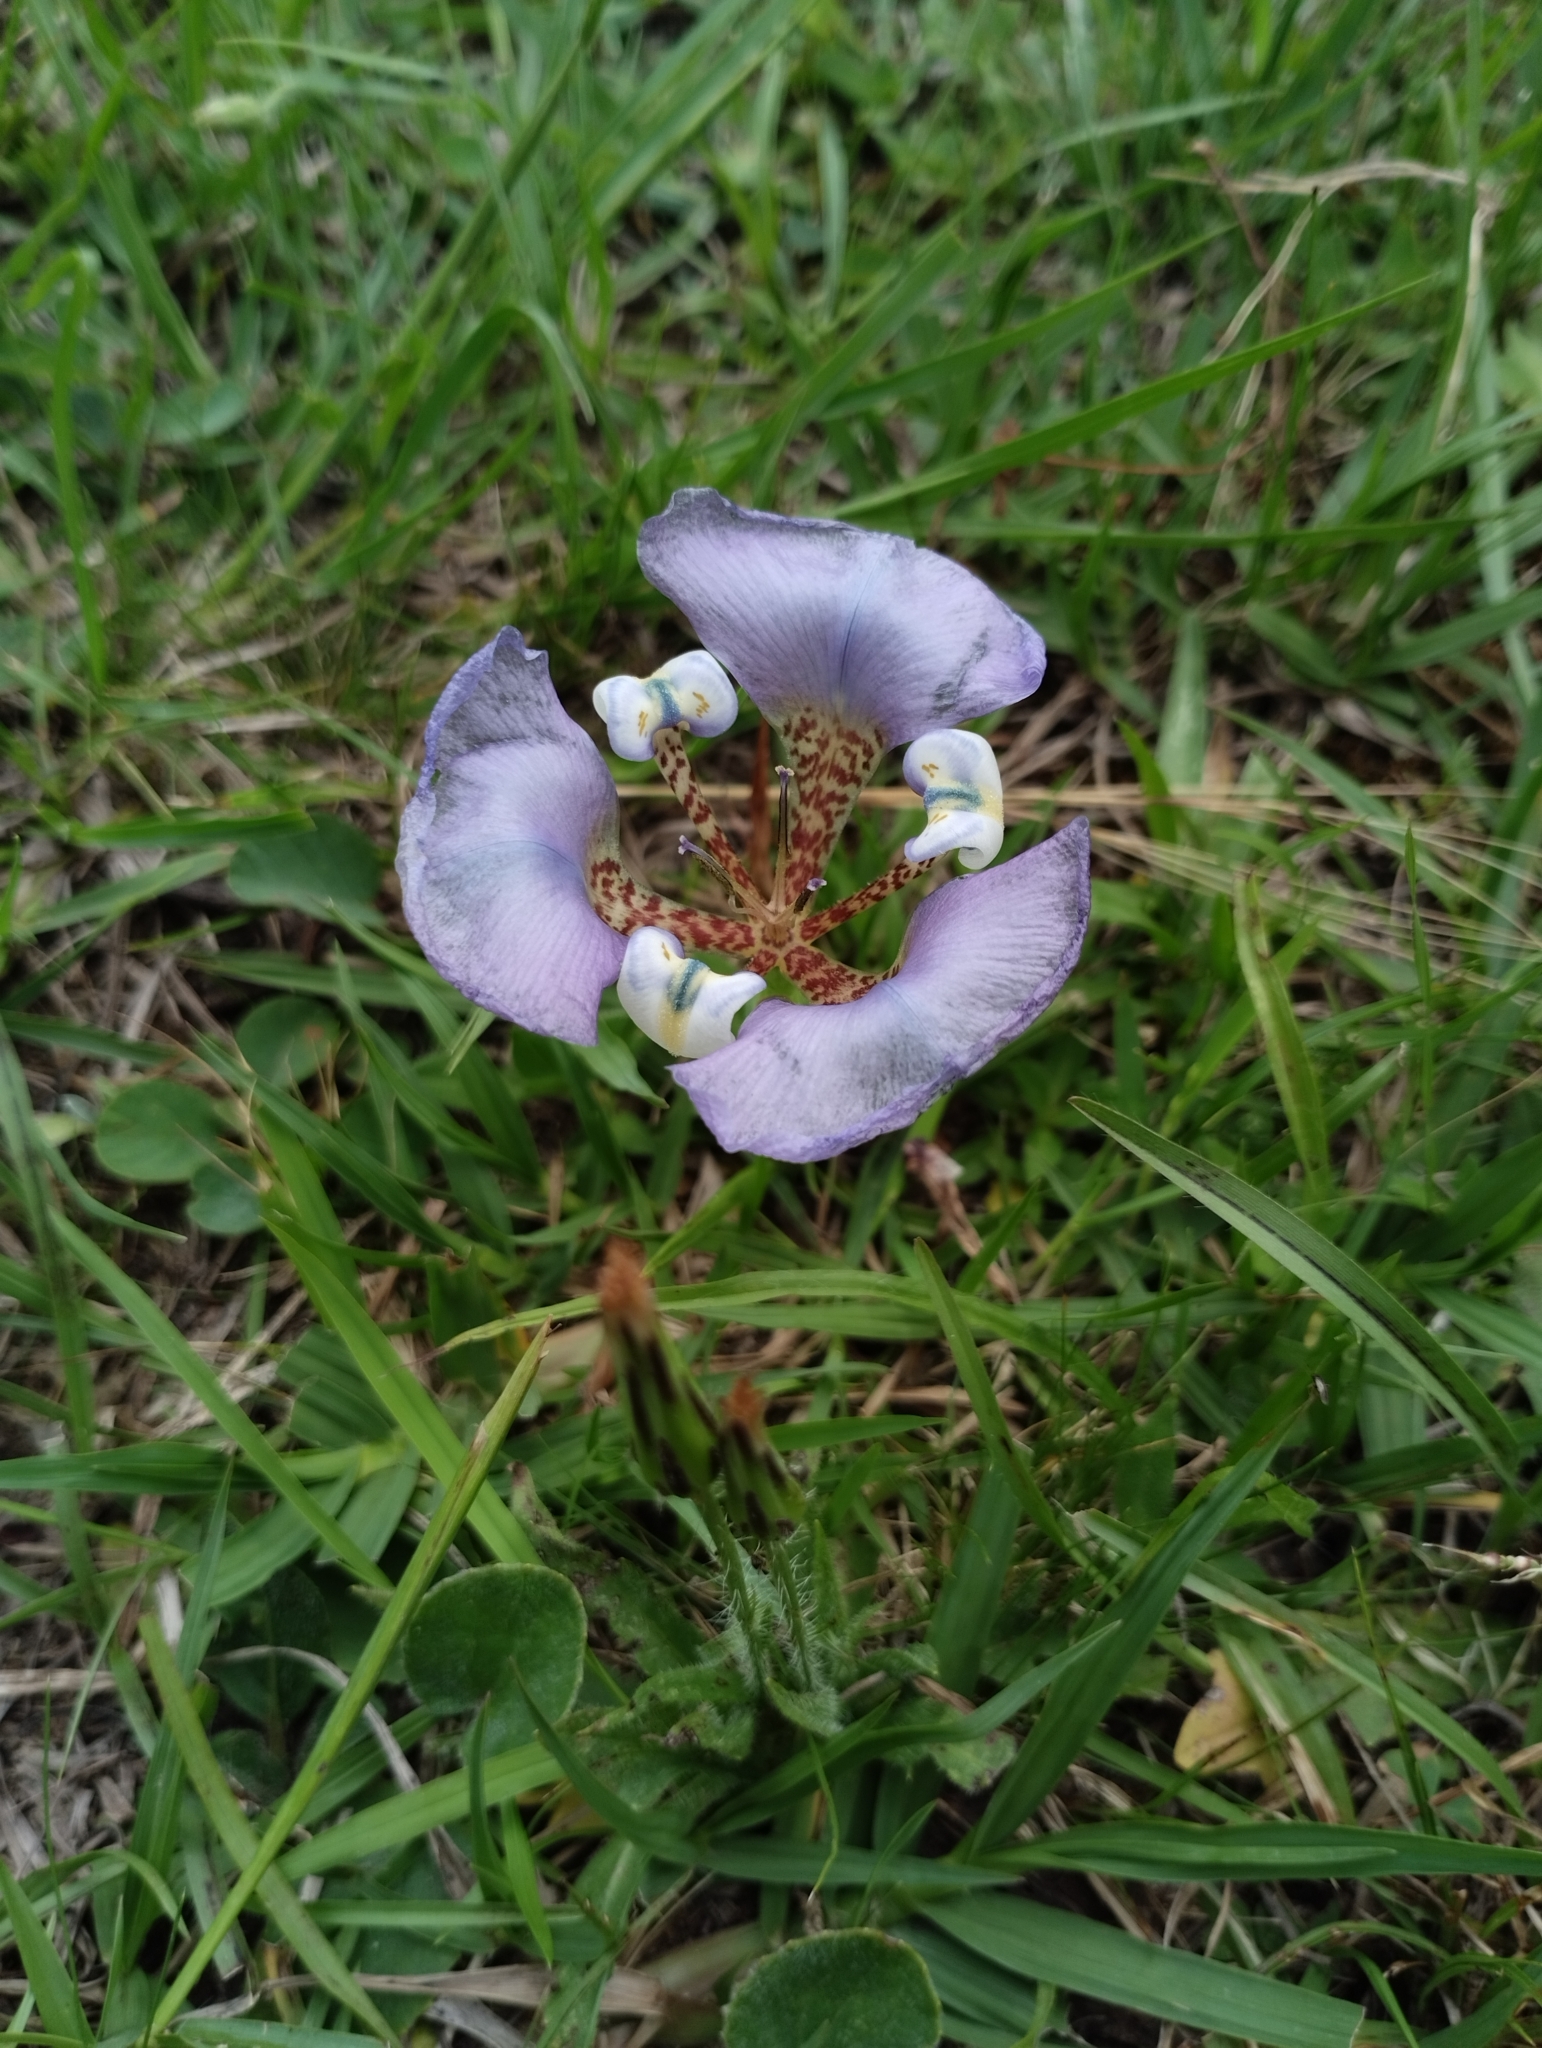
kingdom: Plantae
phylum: Tracheophyta
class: Liliopsida
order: Asparagales
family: Iridaceae
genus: Cypella
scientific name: Cypella unguiculata
